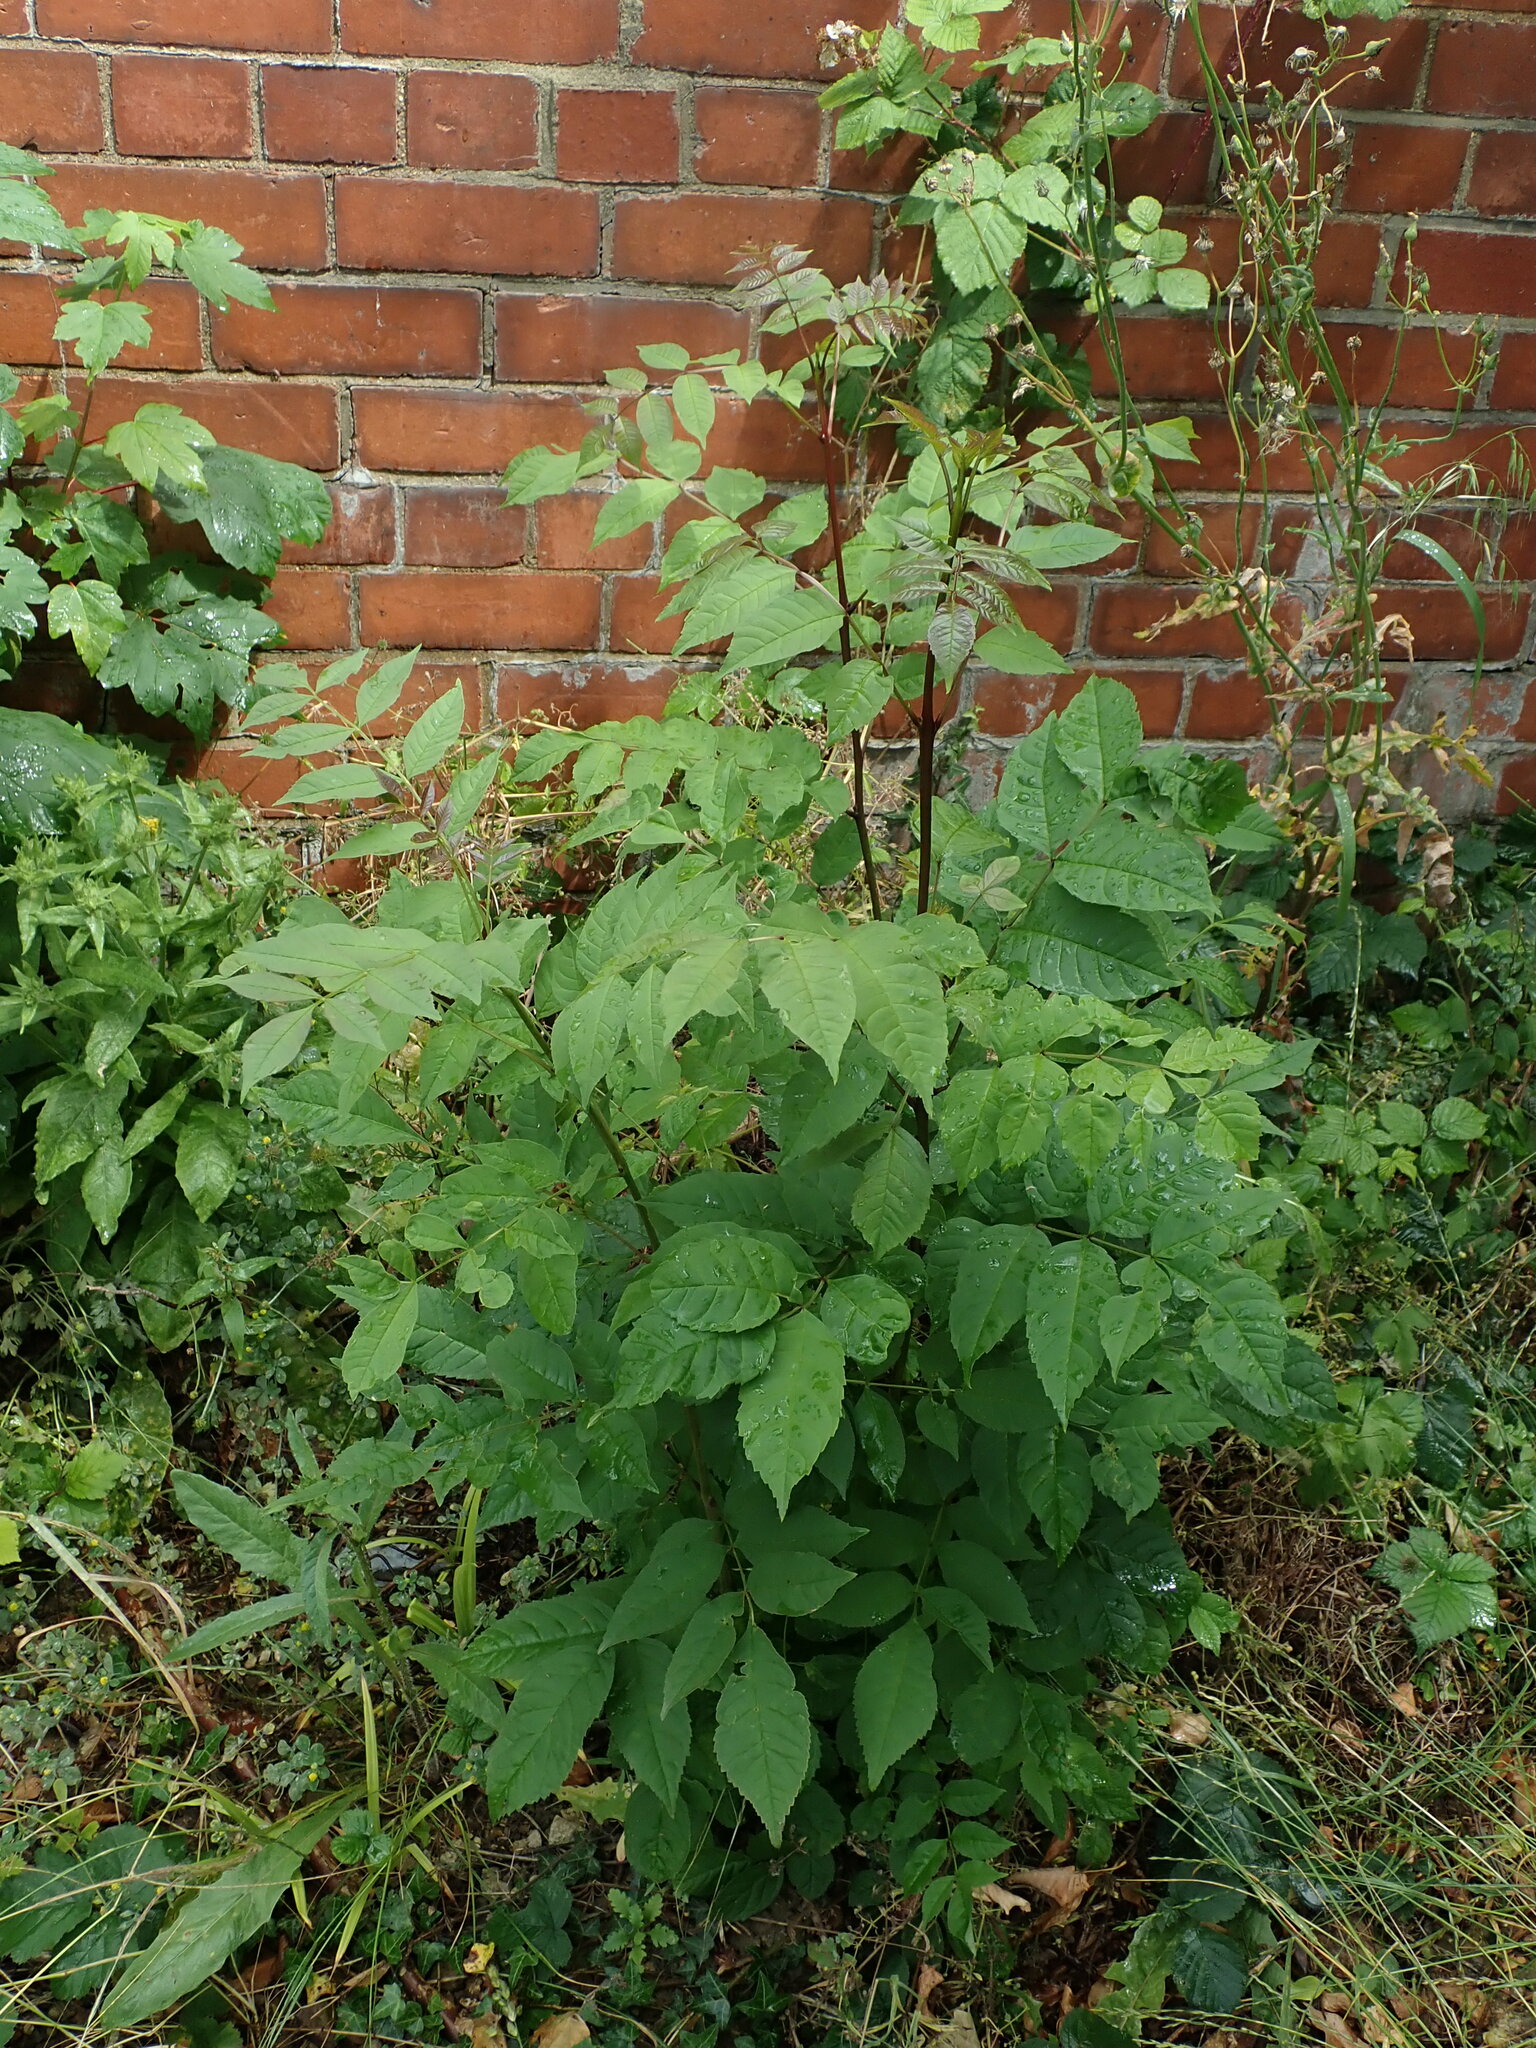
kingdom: Plantae
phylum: Tracheophyta
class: Magnoliopsida
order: Lamiales
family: Oleaceae
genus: Fraxinus
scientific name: Fraxinus excelsior
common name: European ash
